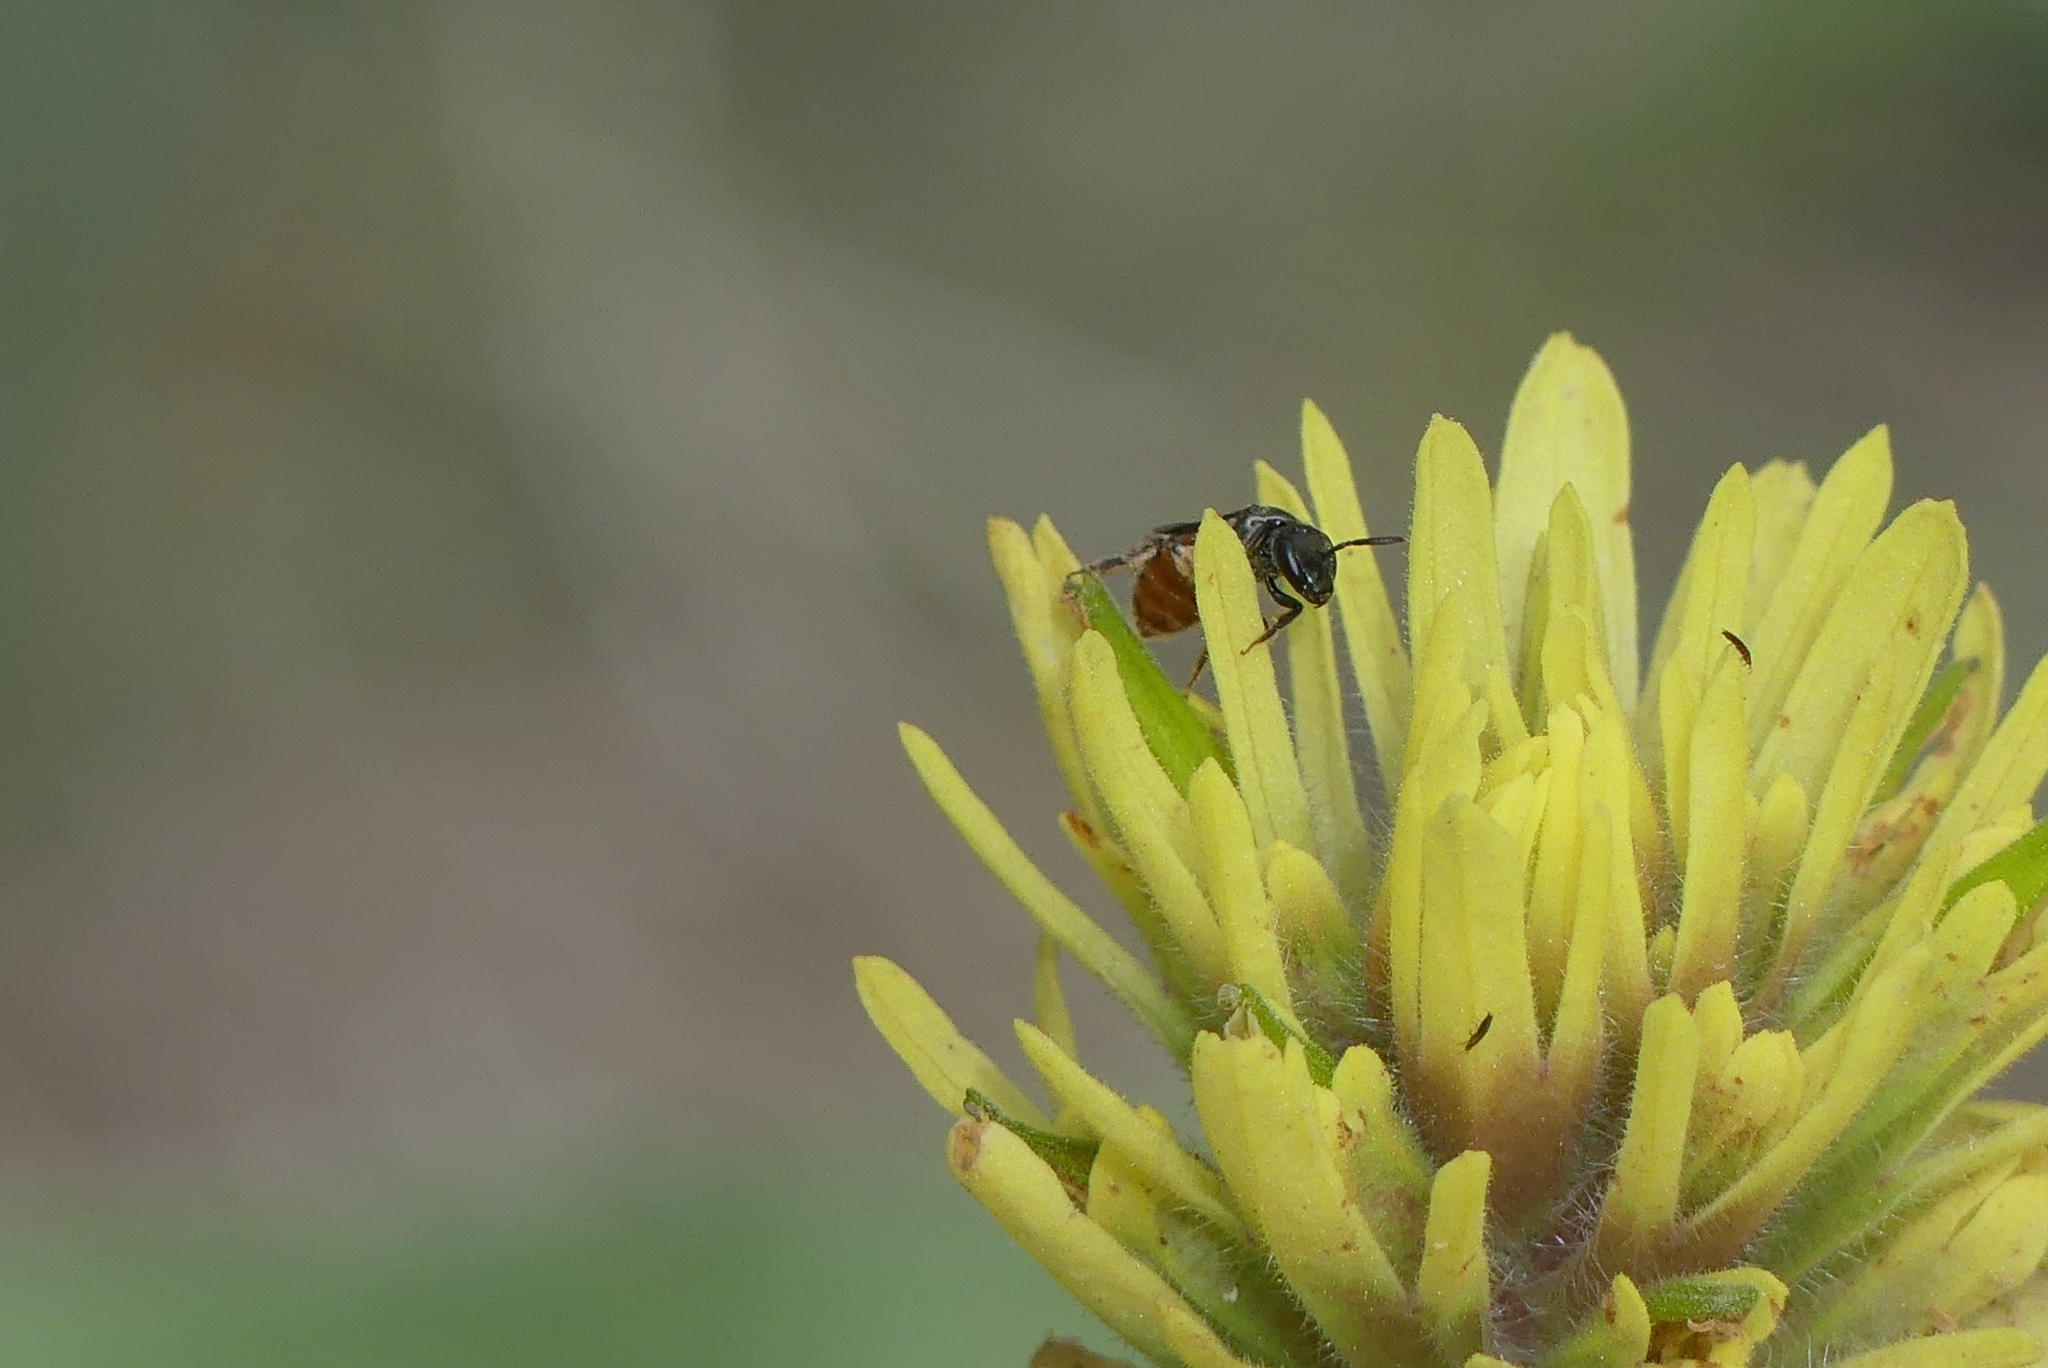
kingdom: Animalia
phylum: Arthropoda
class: Insecta
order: Hymenoptera
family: Halictidae
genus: Lasioglossum
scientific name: Lasioglossum ovaliceps
